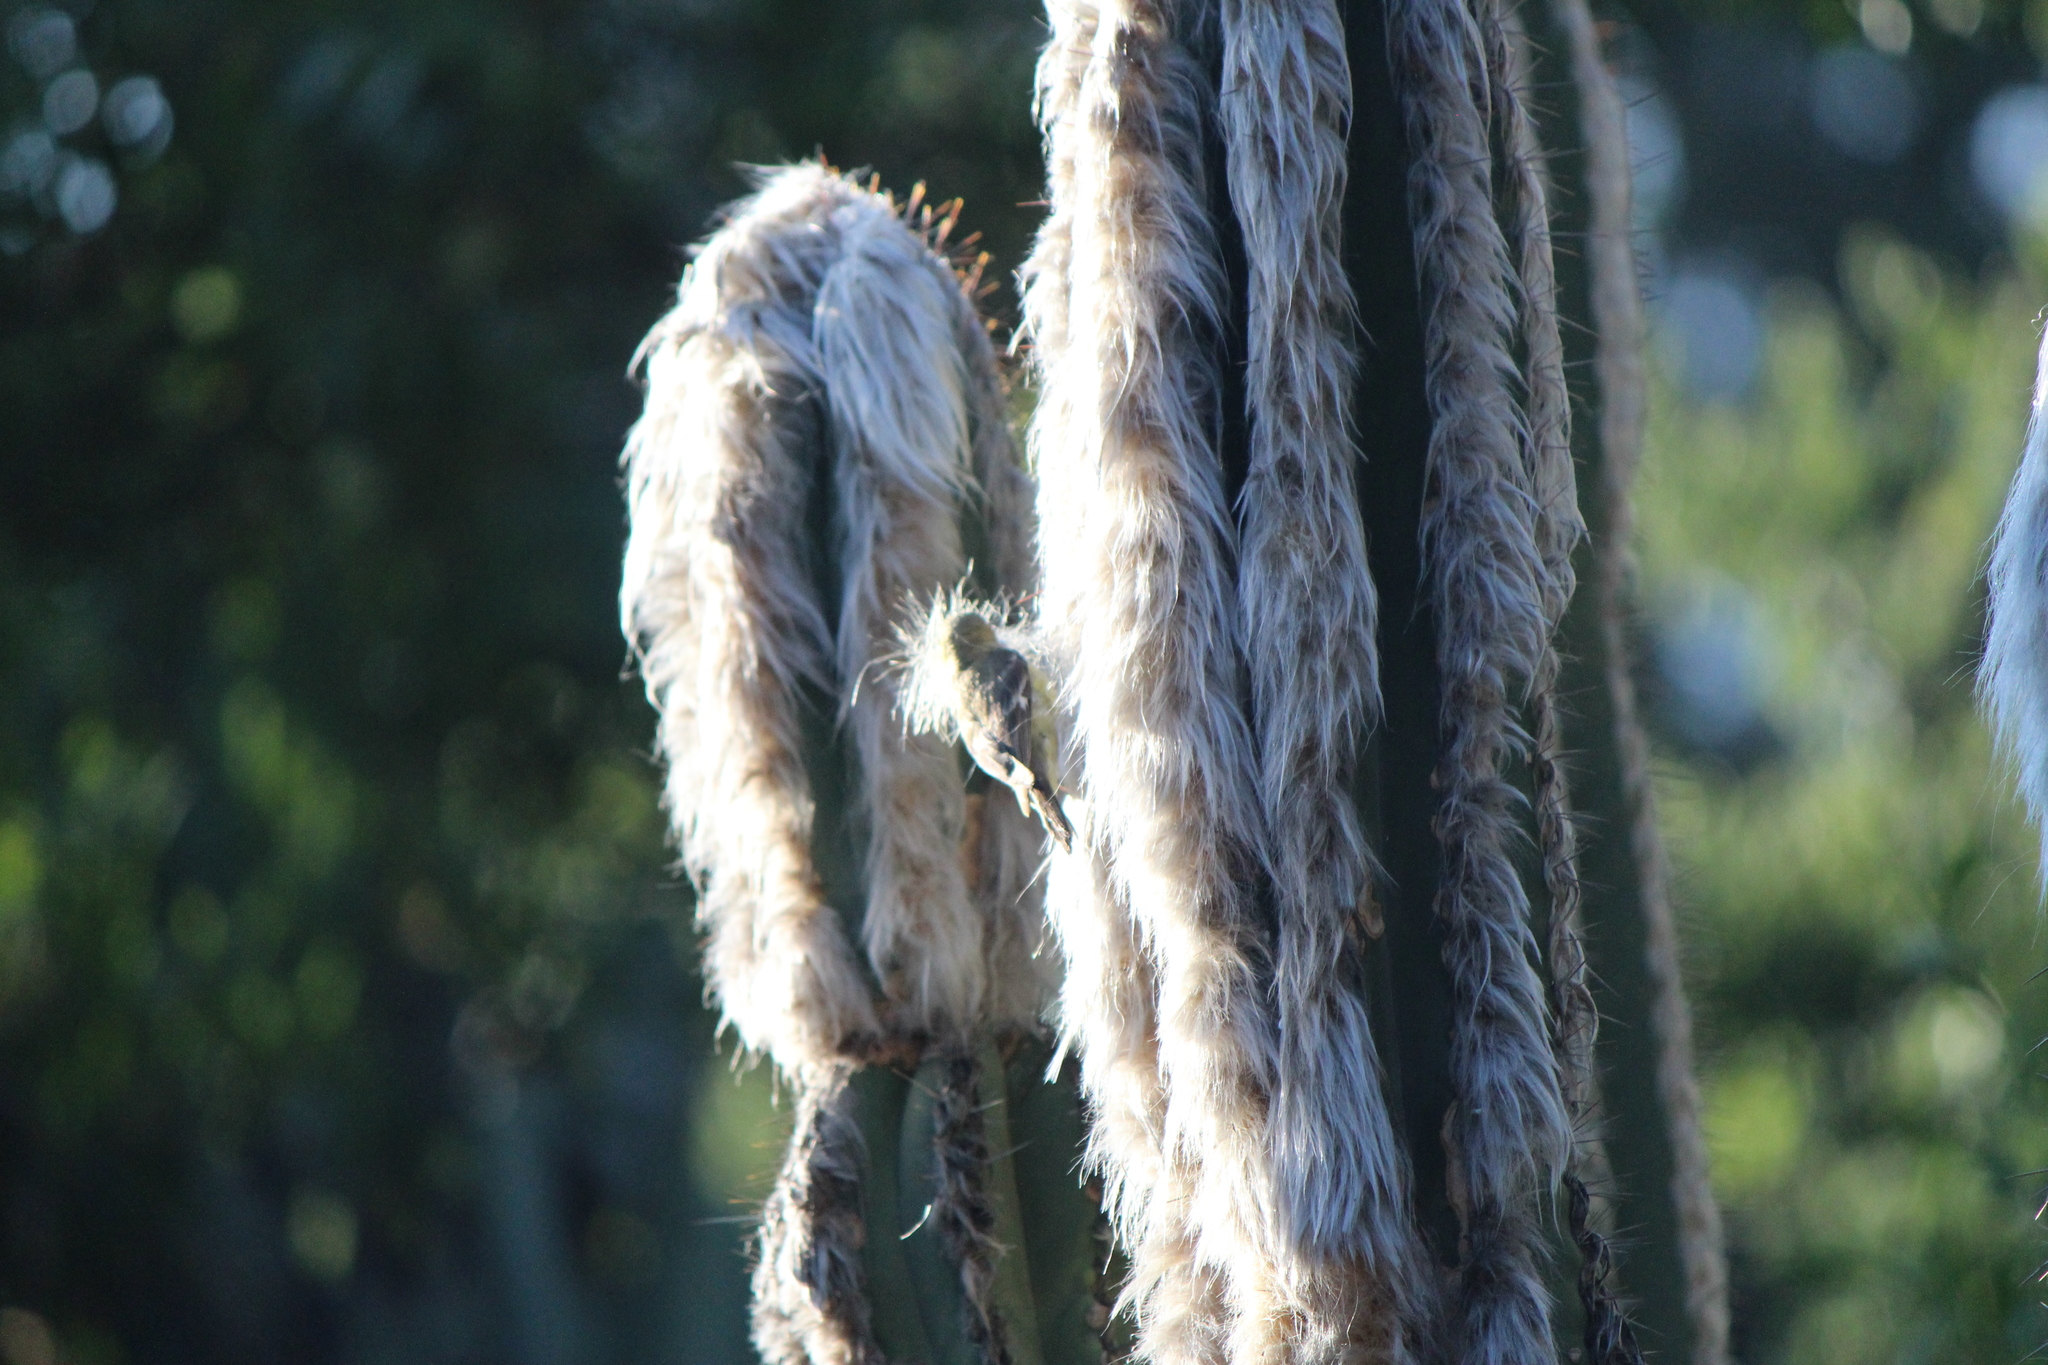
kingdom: Animalia
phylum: Chordata
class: Aves
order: Passeriformes
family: Fringillidae
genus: Spinus
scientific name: Spinus psaltria
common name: Lesser goldfinch
